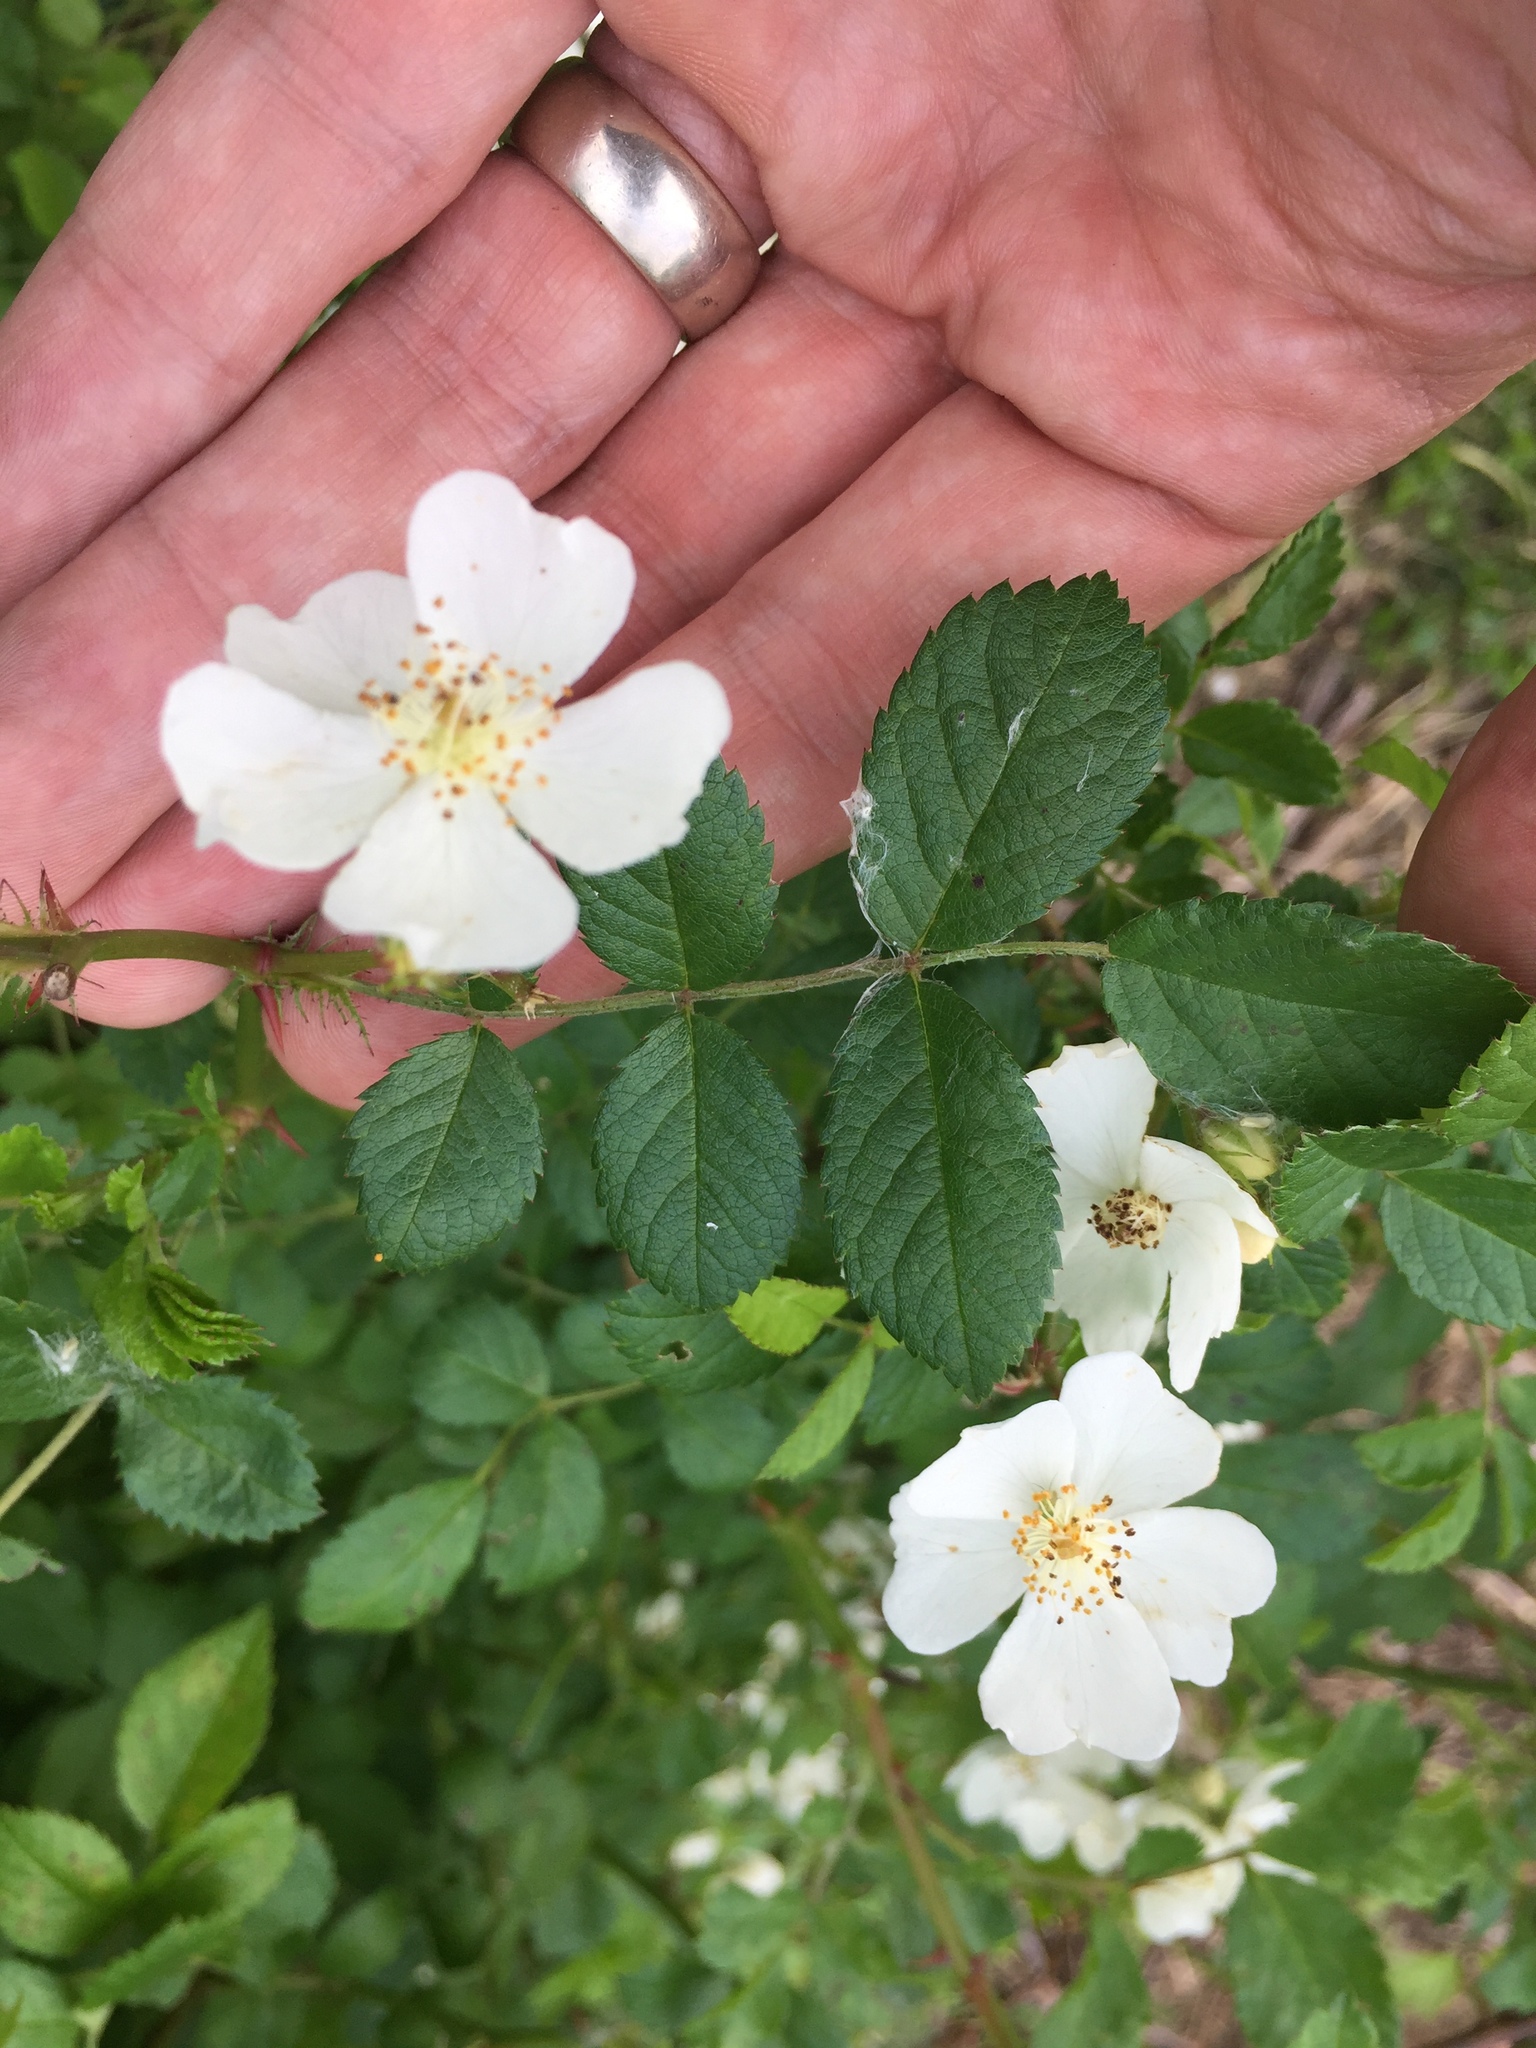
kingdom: Plantae
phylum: Tracheophyta
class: Magnoliopsida
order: Rosales
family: Rosaceae
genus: Rosa
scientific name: Rosa multiflora
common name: Multiflora rose
